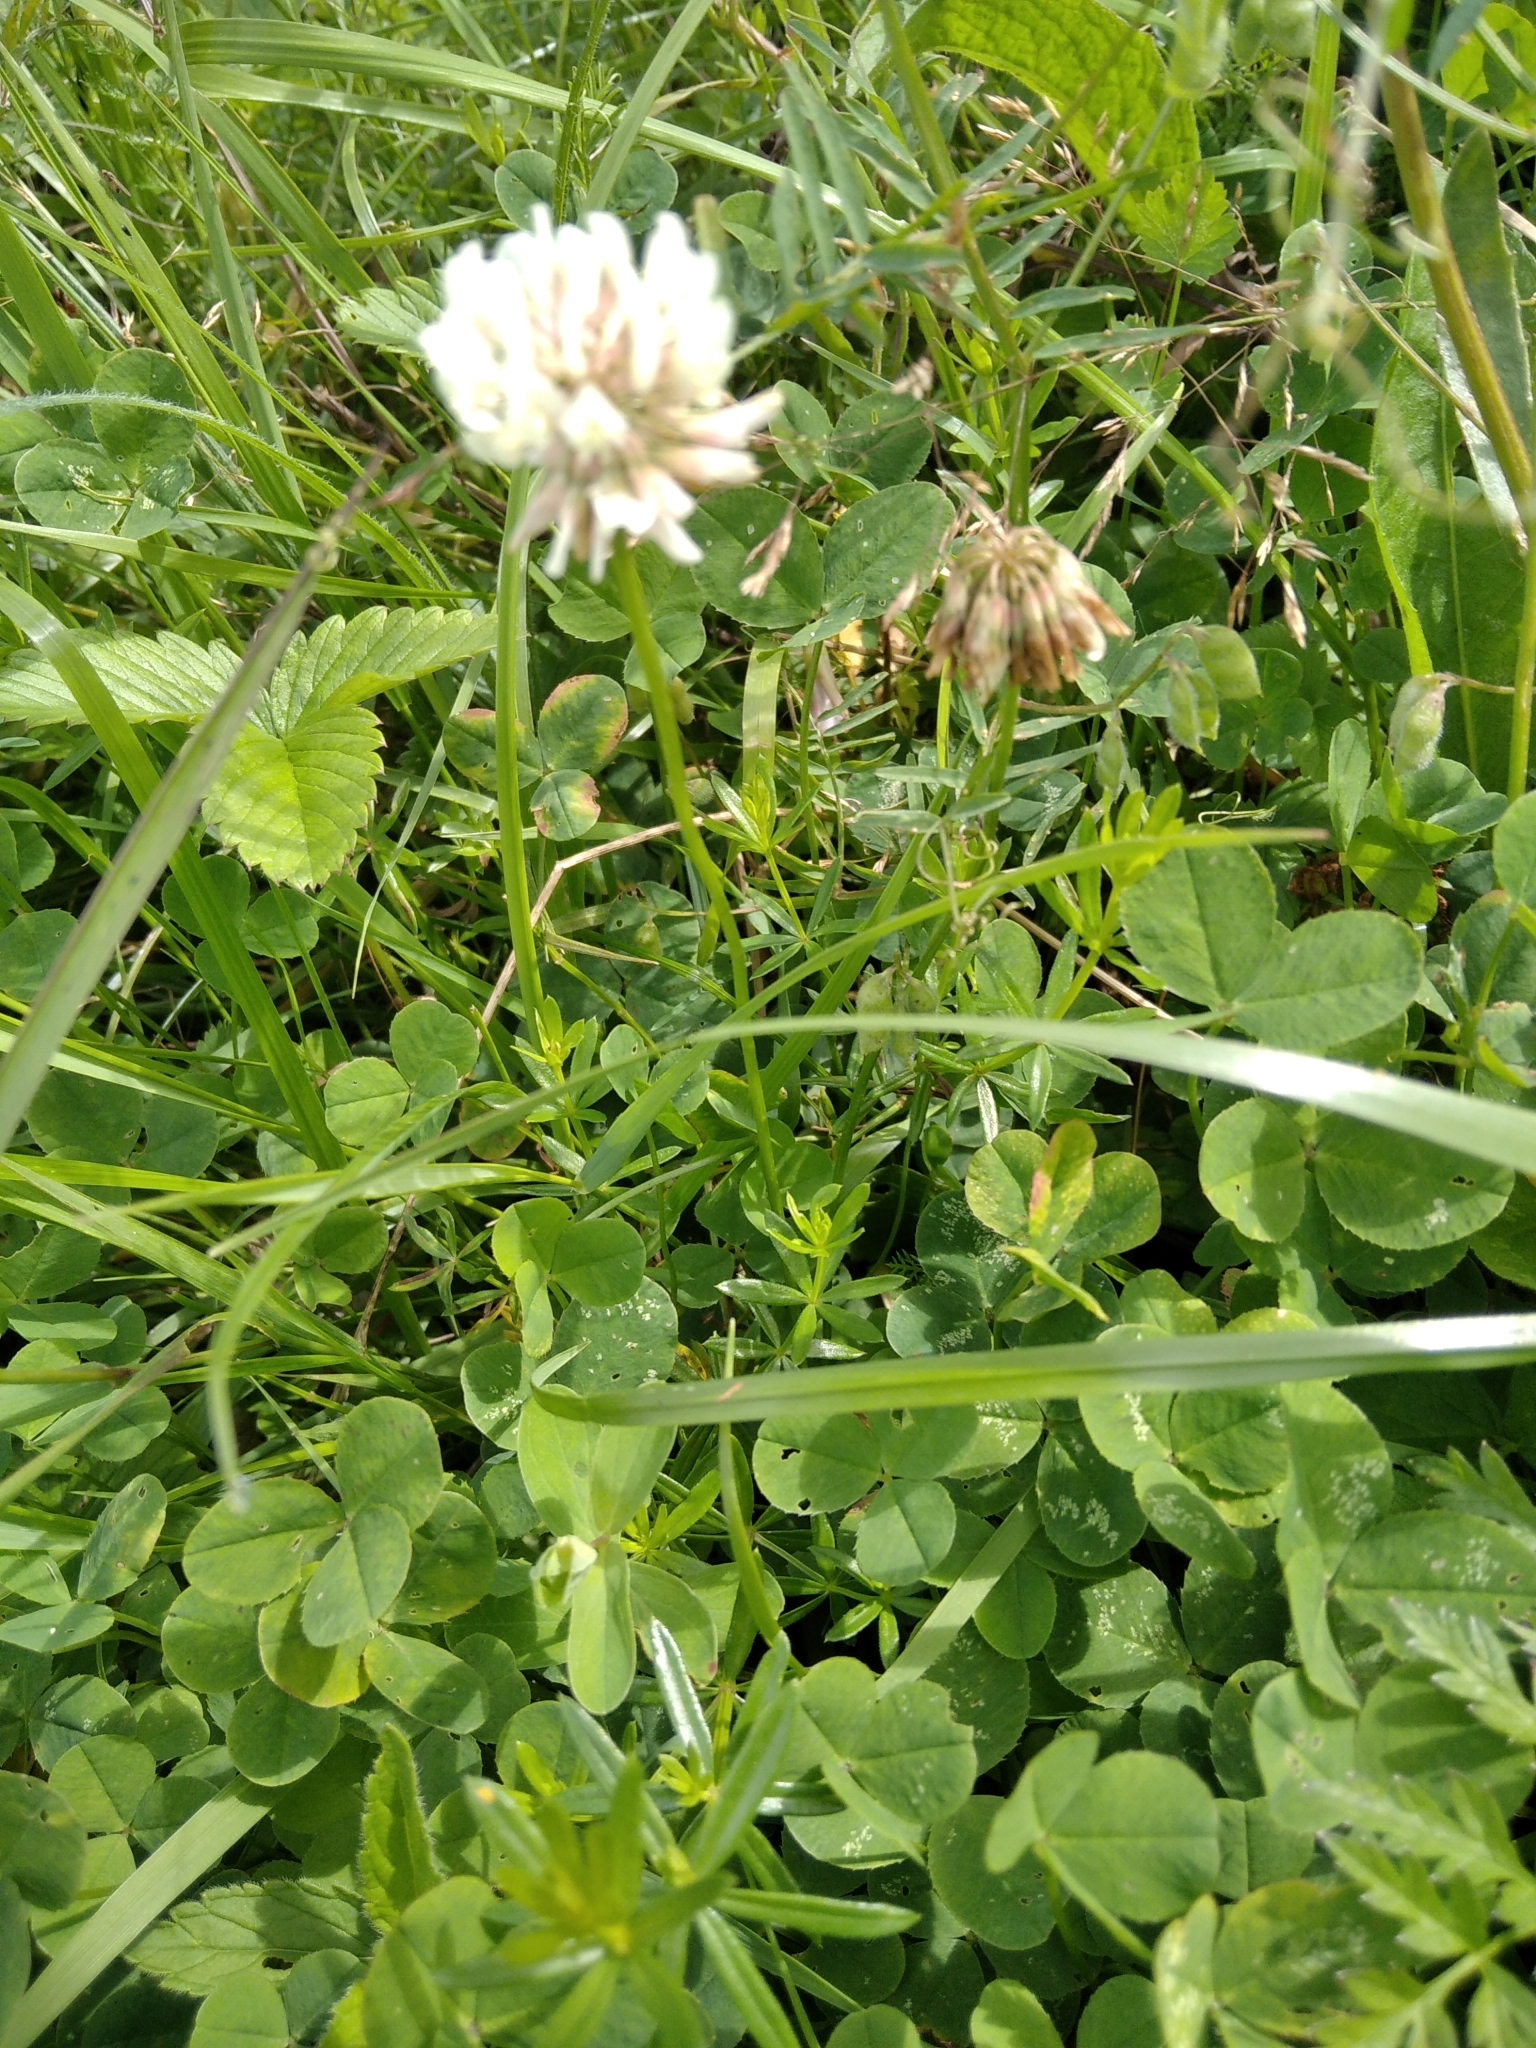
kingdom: Plantae
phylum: Tracheophyta
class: Magnoliopsida
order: Fabales
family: Fabaceae
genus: Trifolium
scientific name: Trifolium repens
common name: White clover
